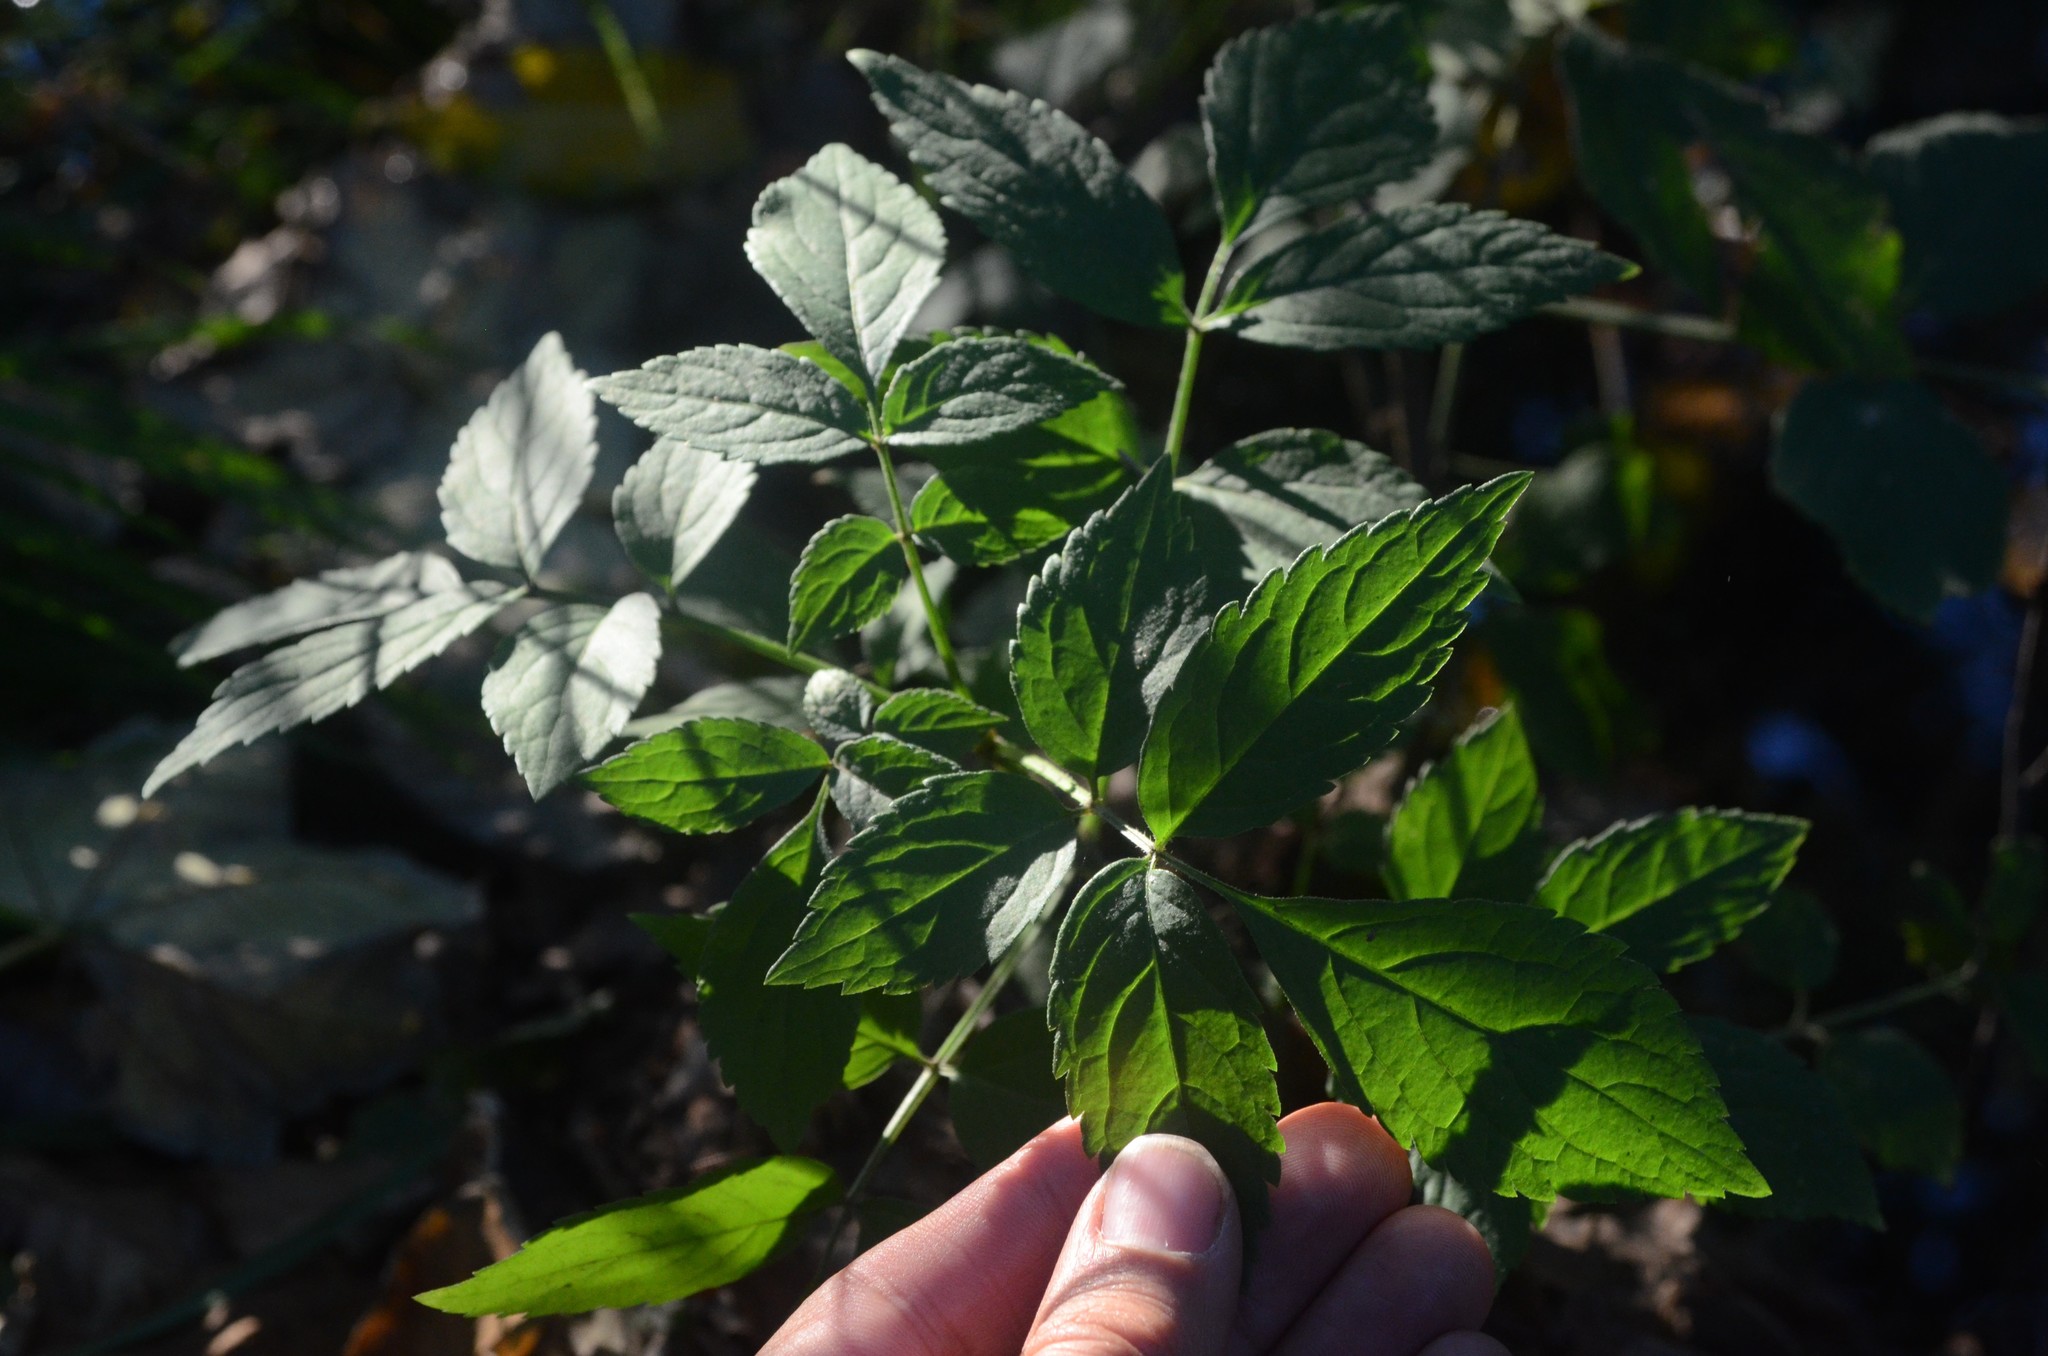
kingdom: Plantae
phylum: Tracheophyta
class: Magnoliopsida
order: Dipsacales
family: Viburnaceae
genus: Sambucus
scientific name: Sambucus nigra
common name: Elder
